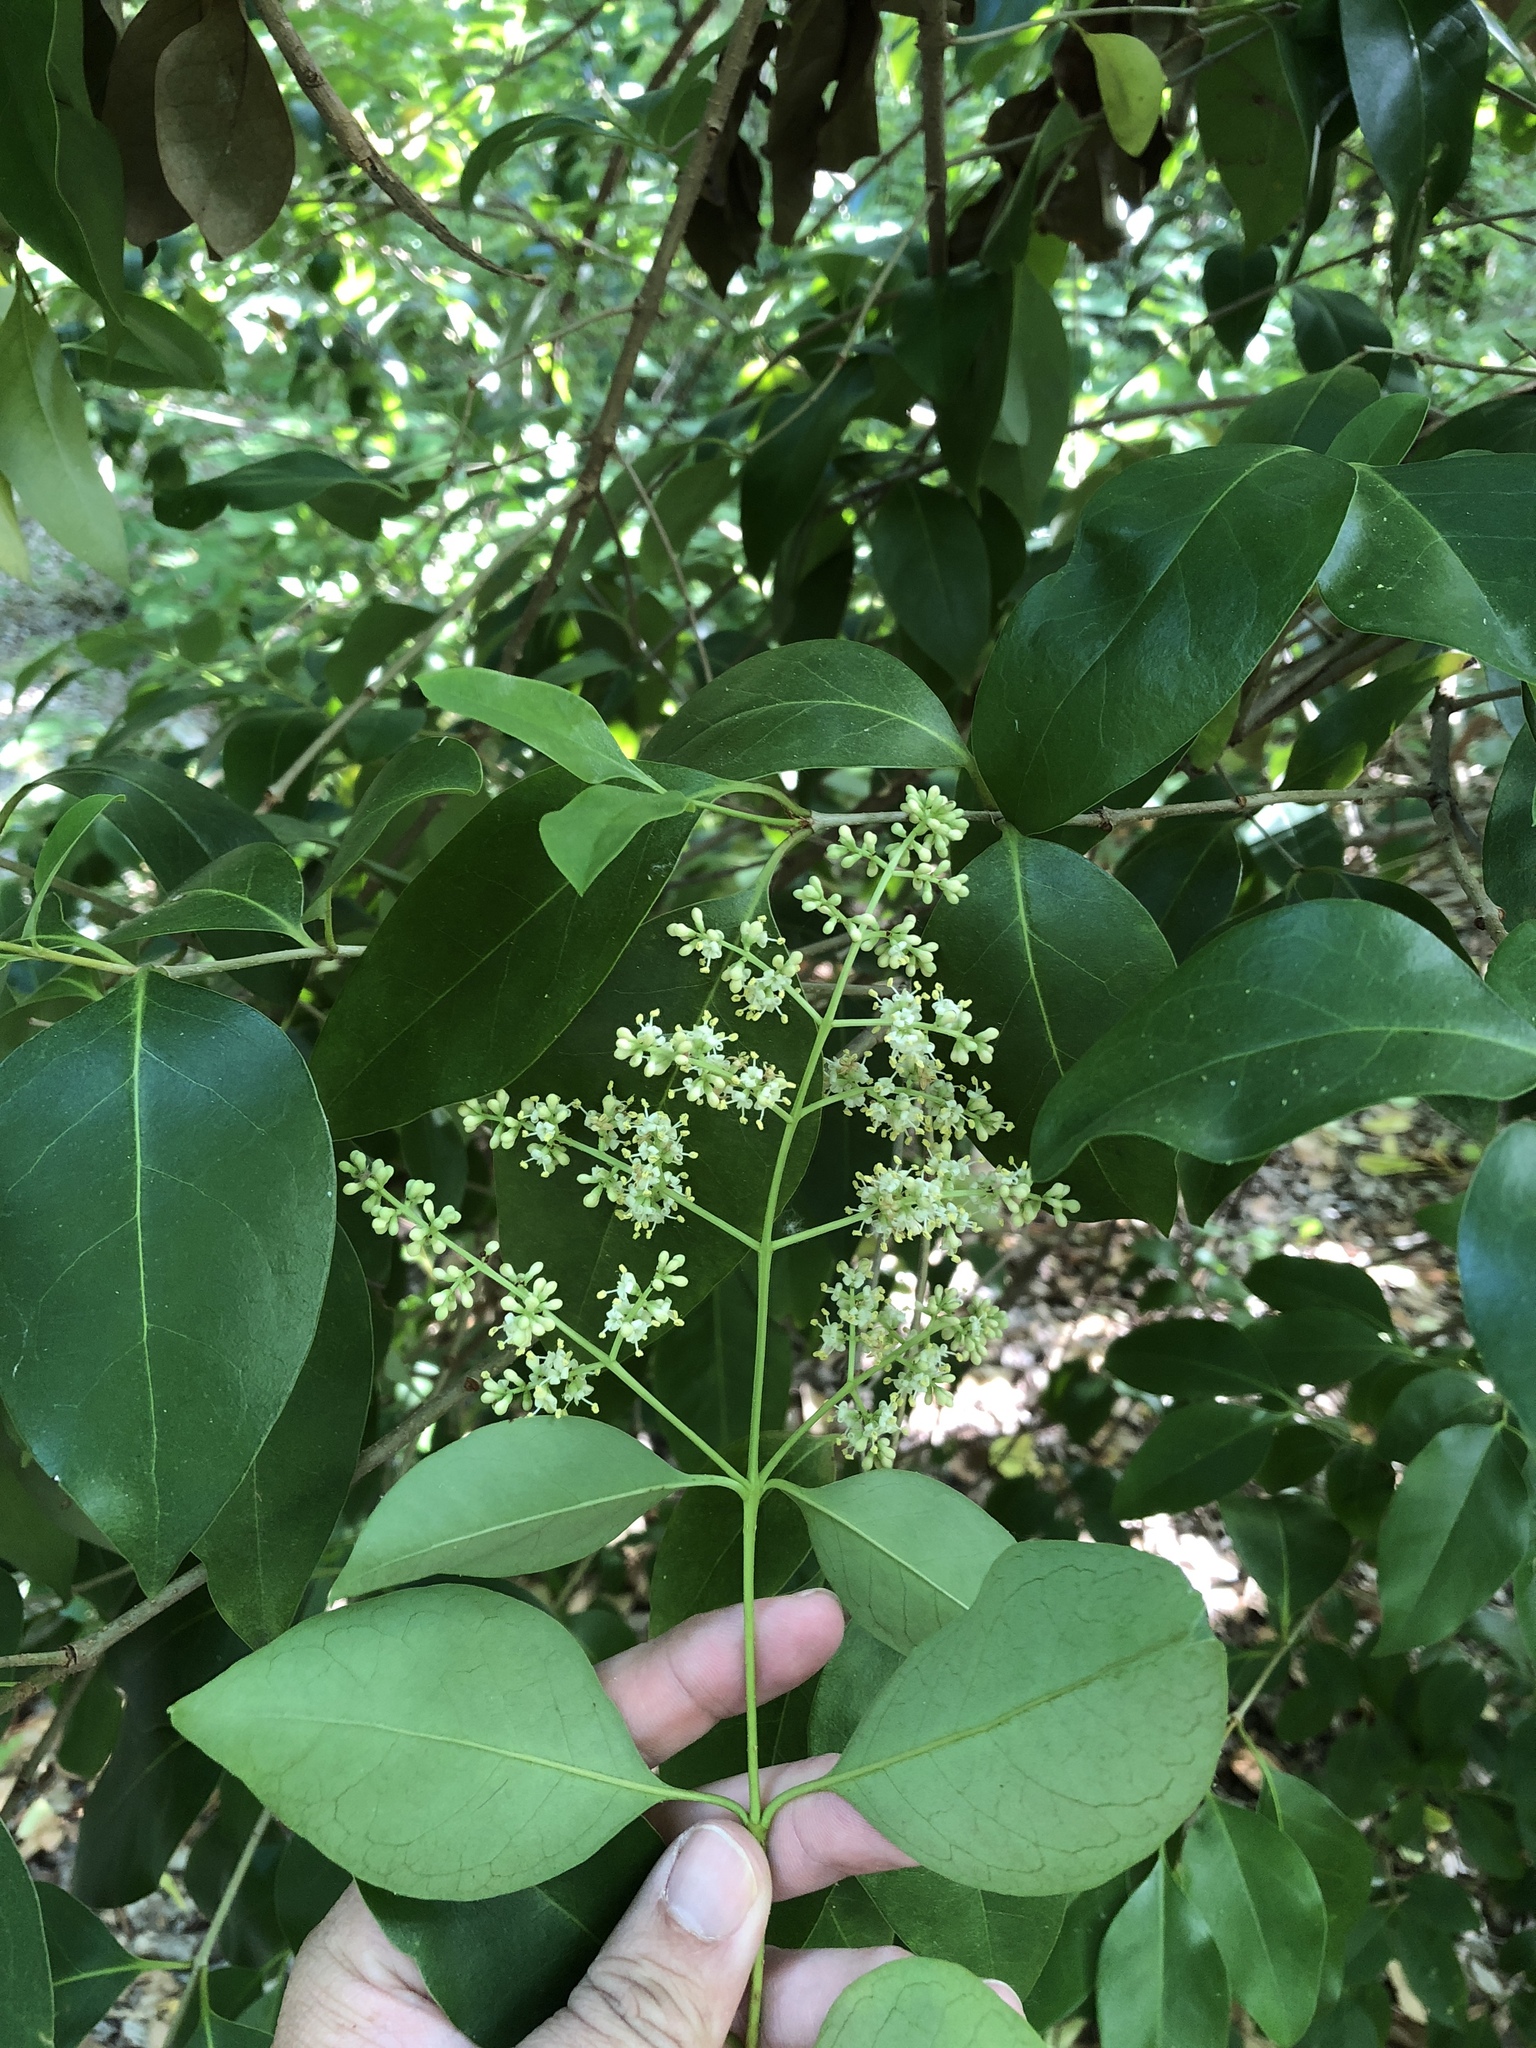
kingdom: Plantae
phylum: Tracheophyta
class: Magnoliopsida
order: Lamiales
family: Oleaceae
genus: Ligustrum
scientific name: Ligustrum lucidum
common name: Glossy privet
